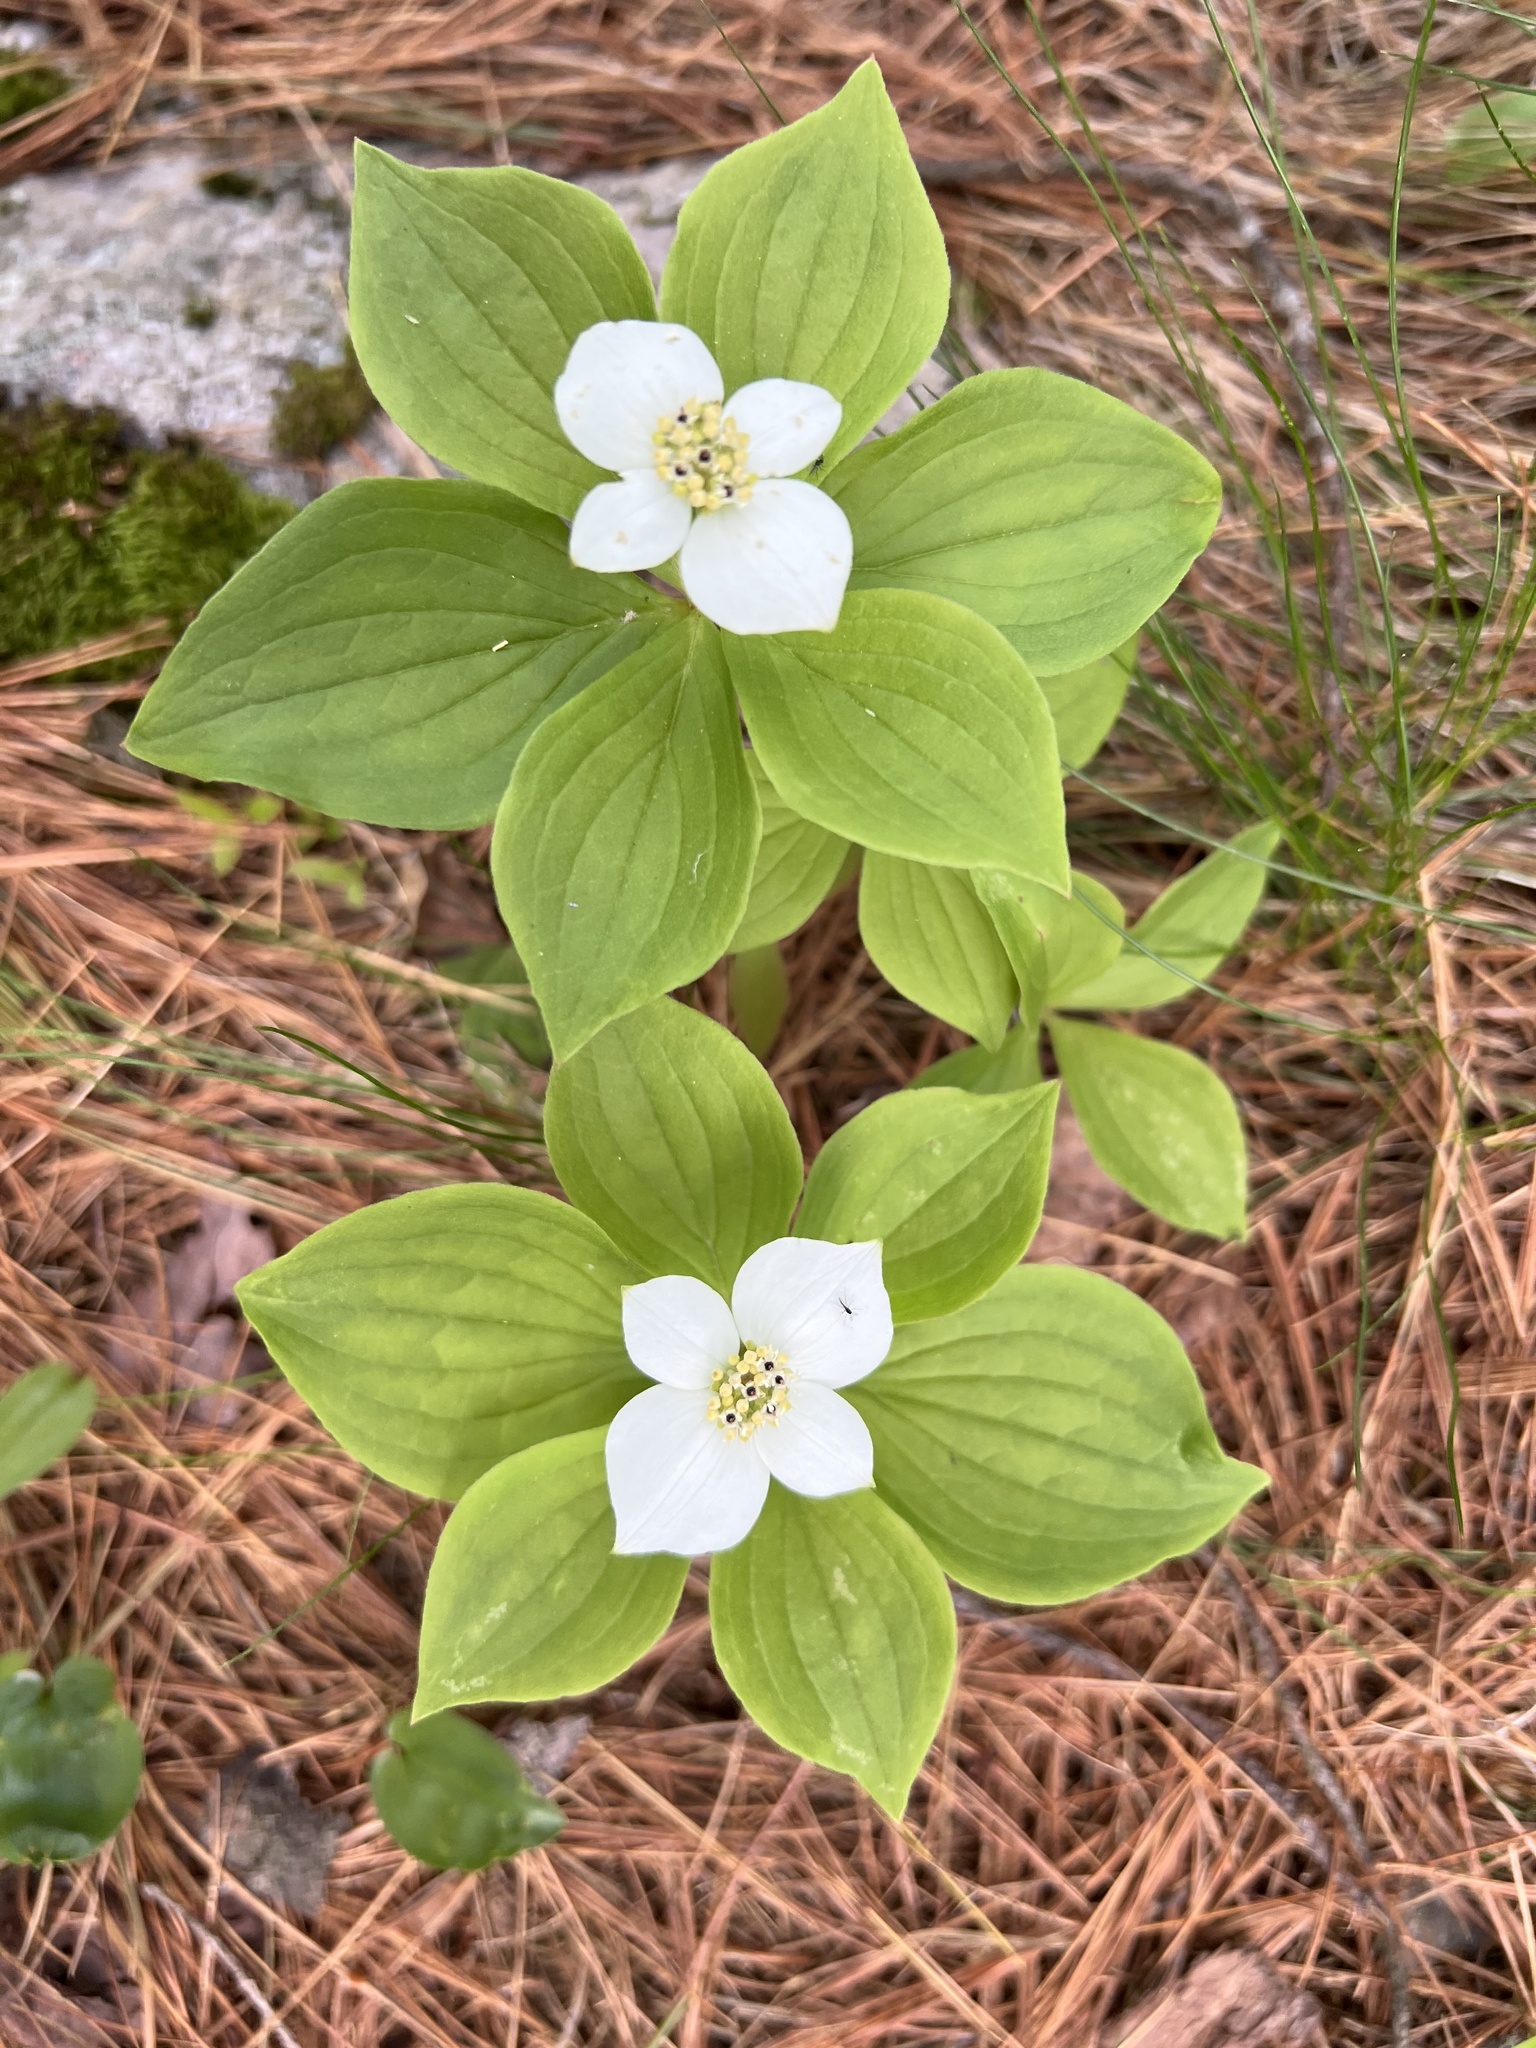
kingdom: Plantae
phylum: Tracheophyta
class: Magnoliopsida
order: Cornales
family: Cornaceae
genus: Cornus
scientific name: Cornus canadensis
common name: Creeping dogwood
